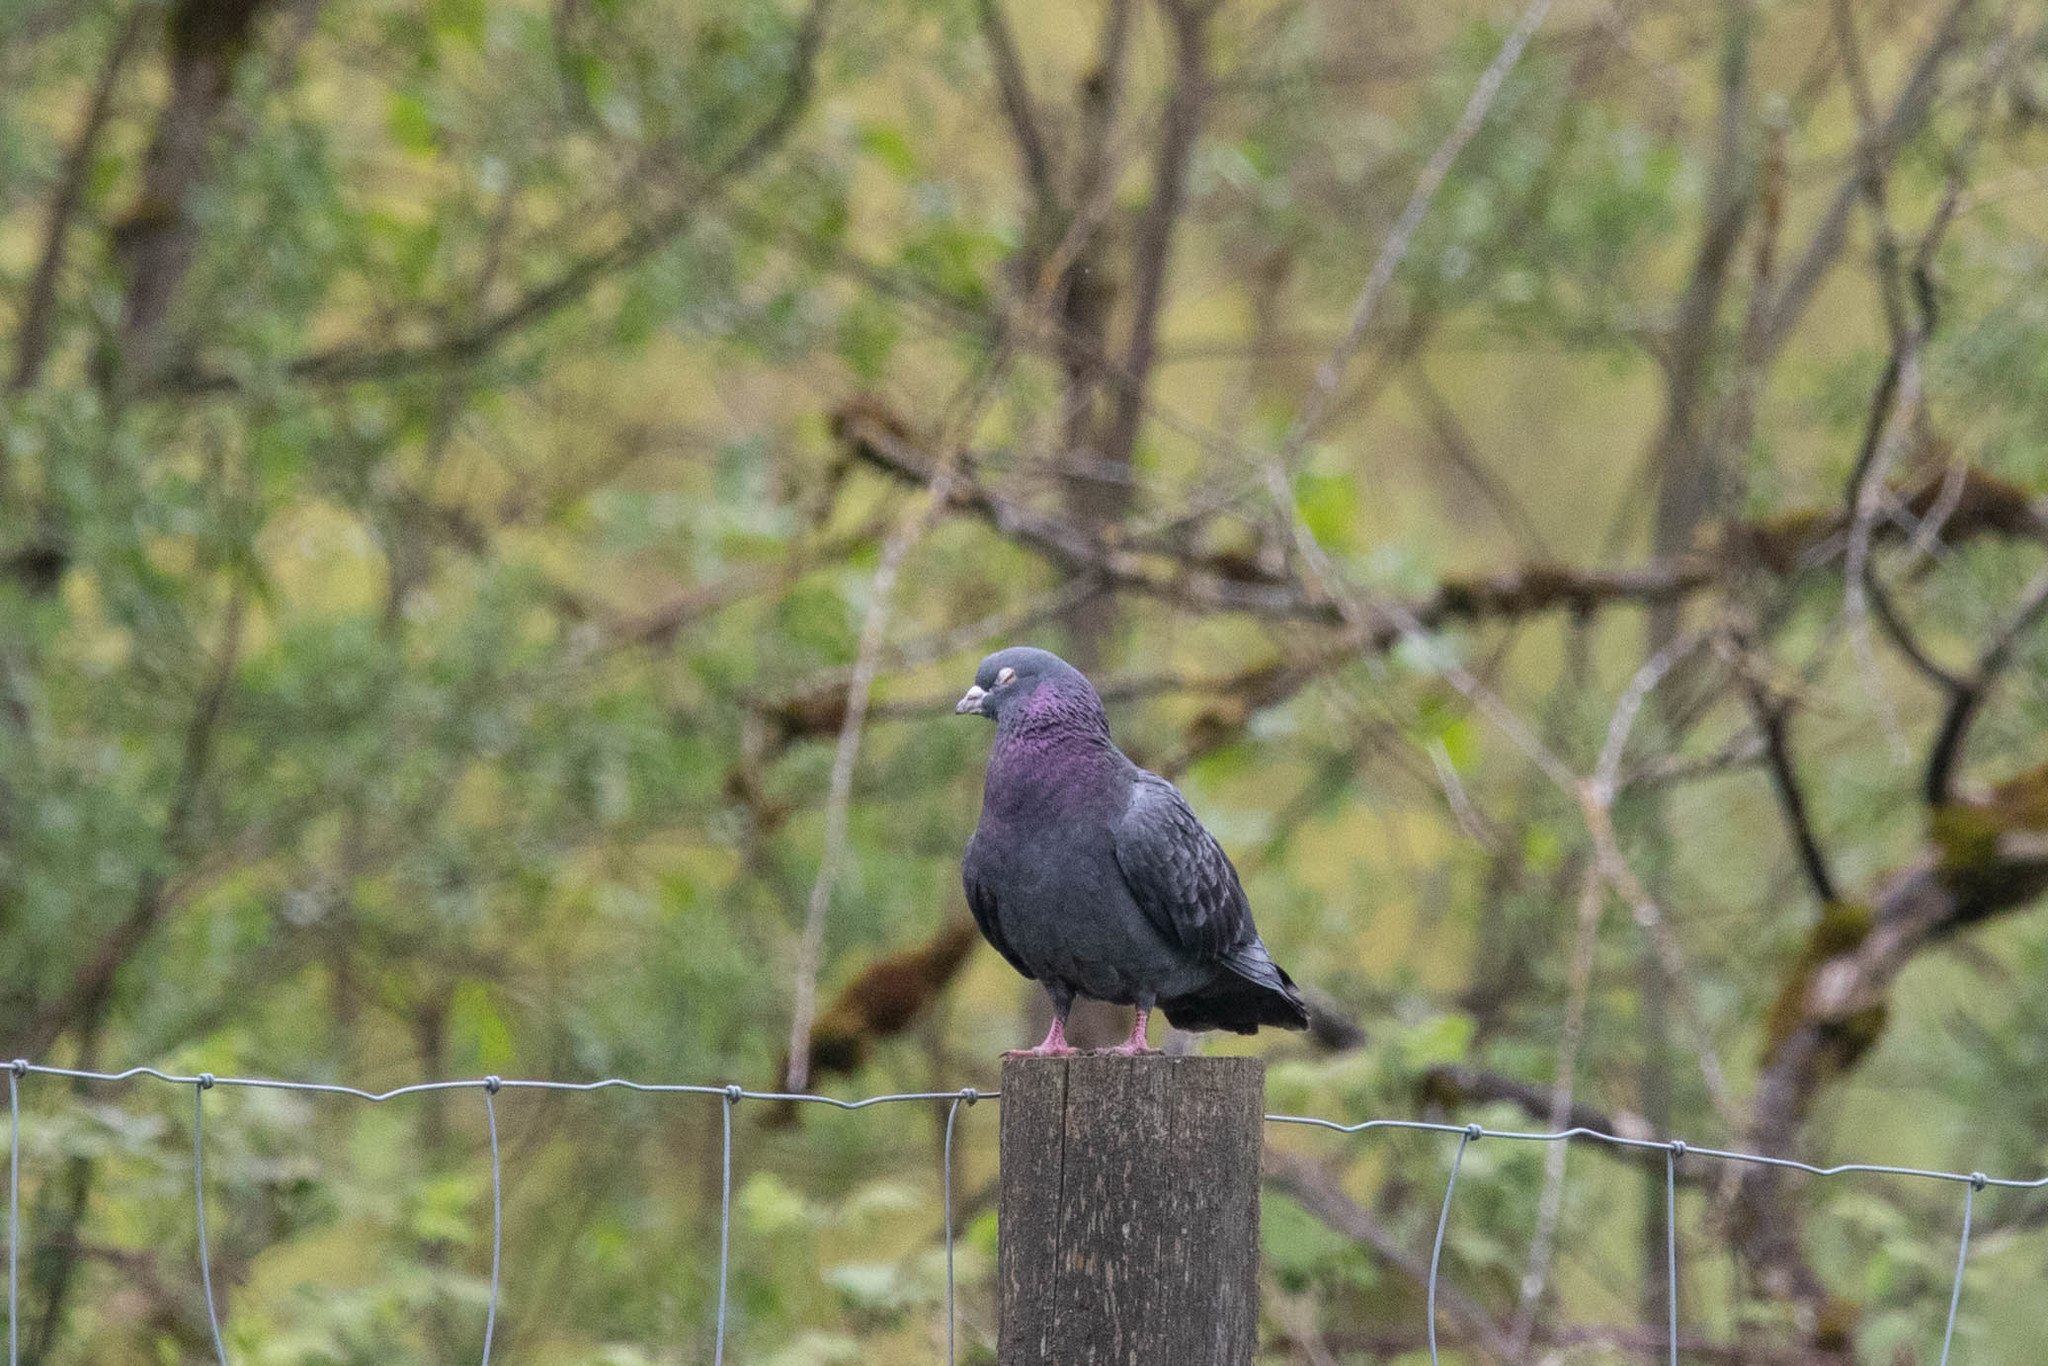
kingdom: Animalia
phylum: Chordata
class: Aves
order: Columbiformes
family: Columbidae
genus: Columba
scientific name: Columba livia
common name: Rock pigeon
